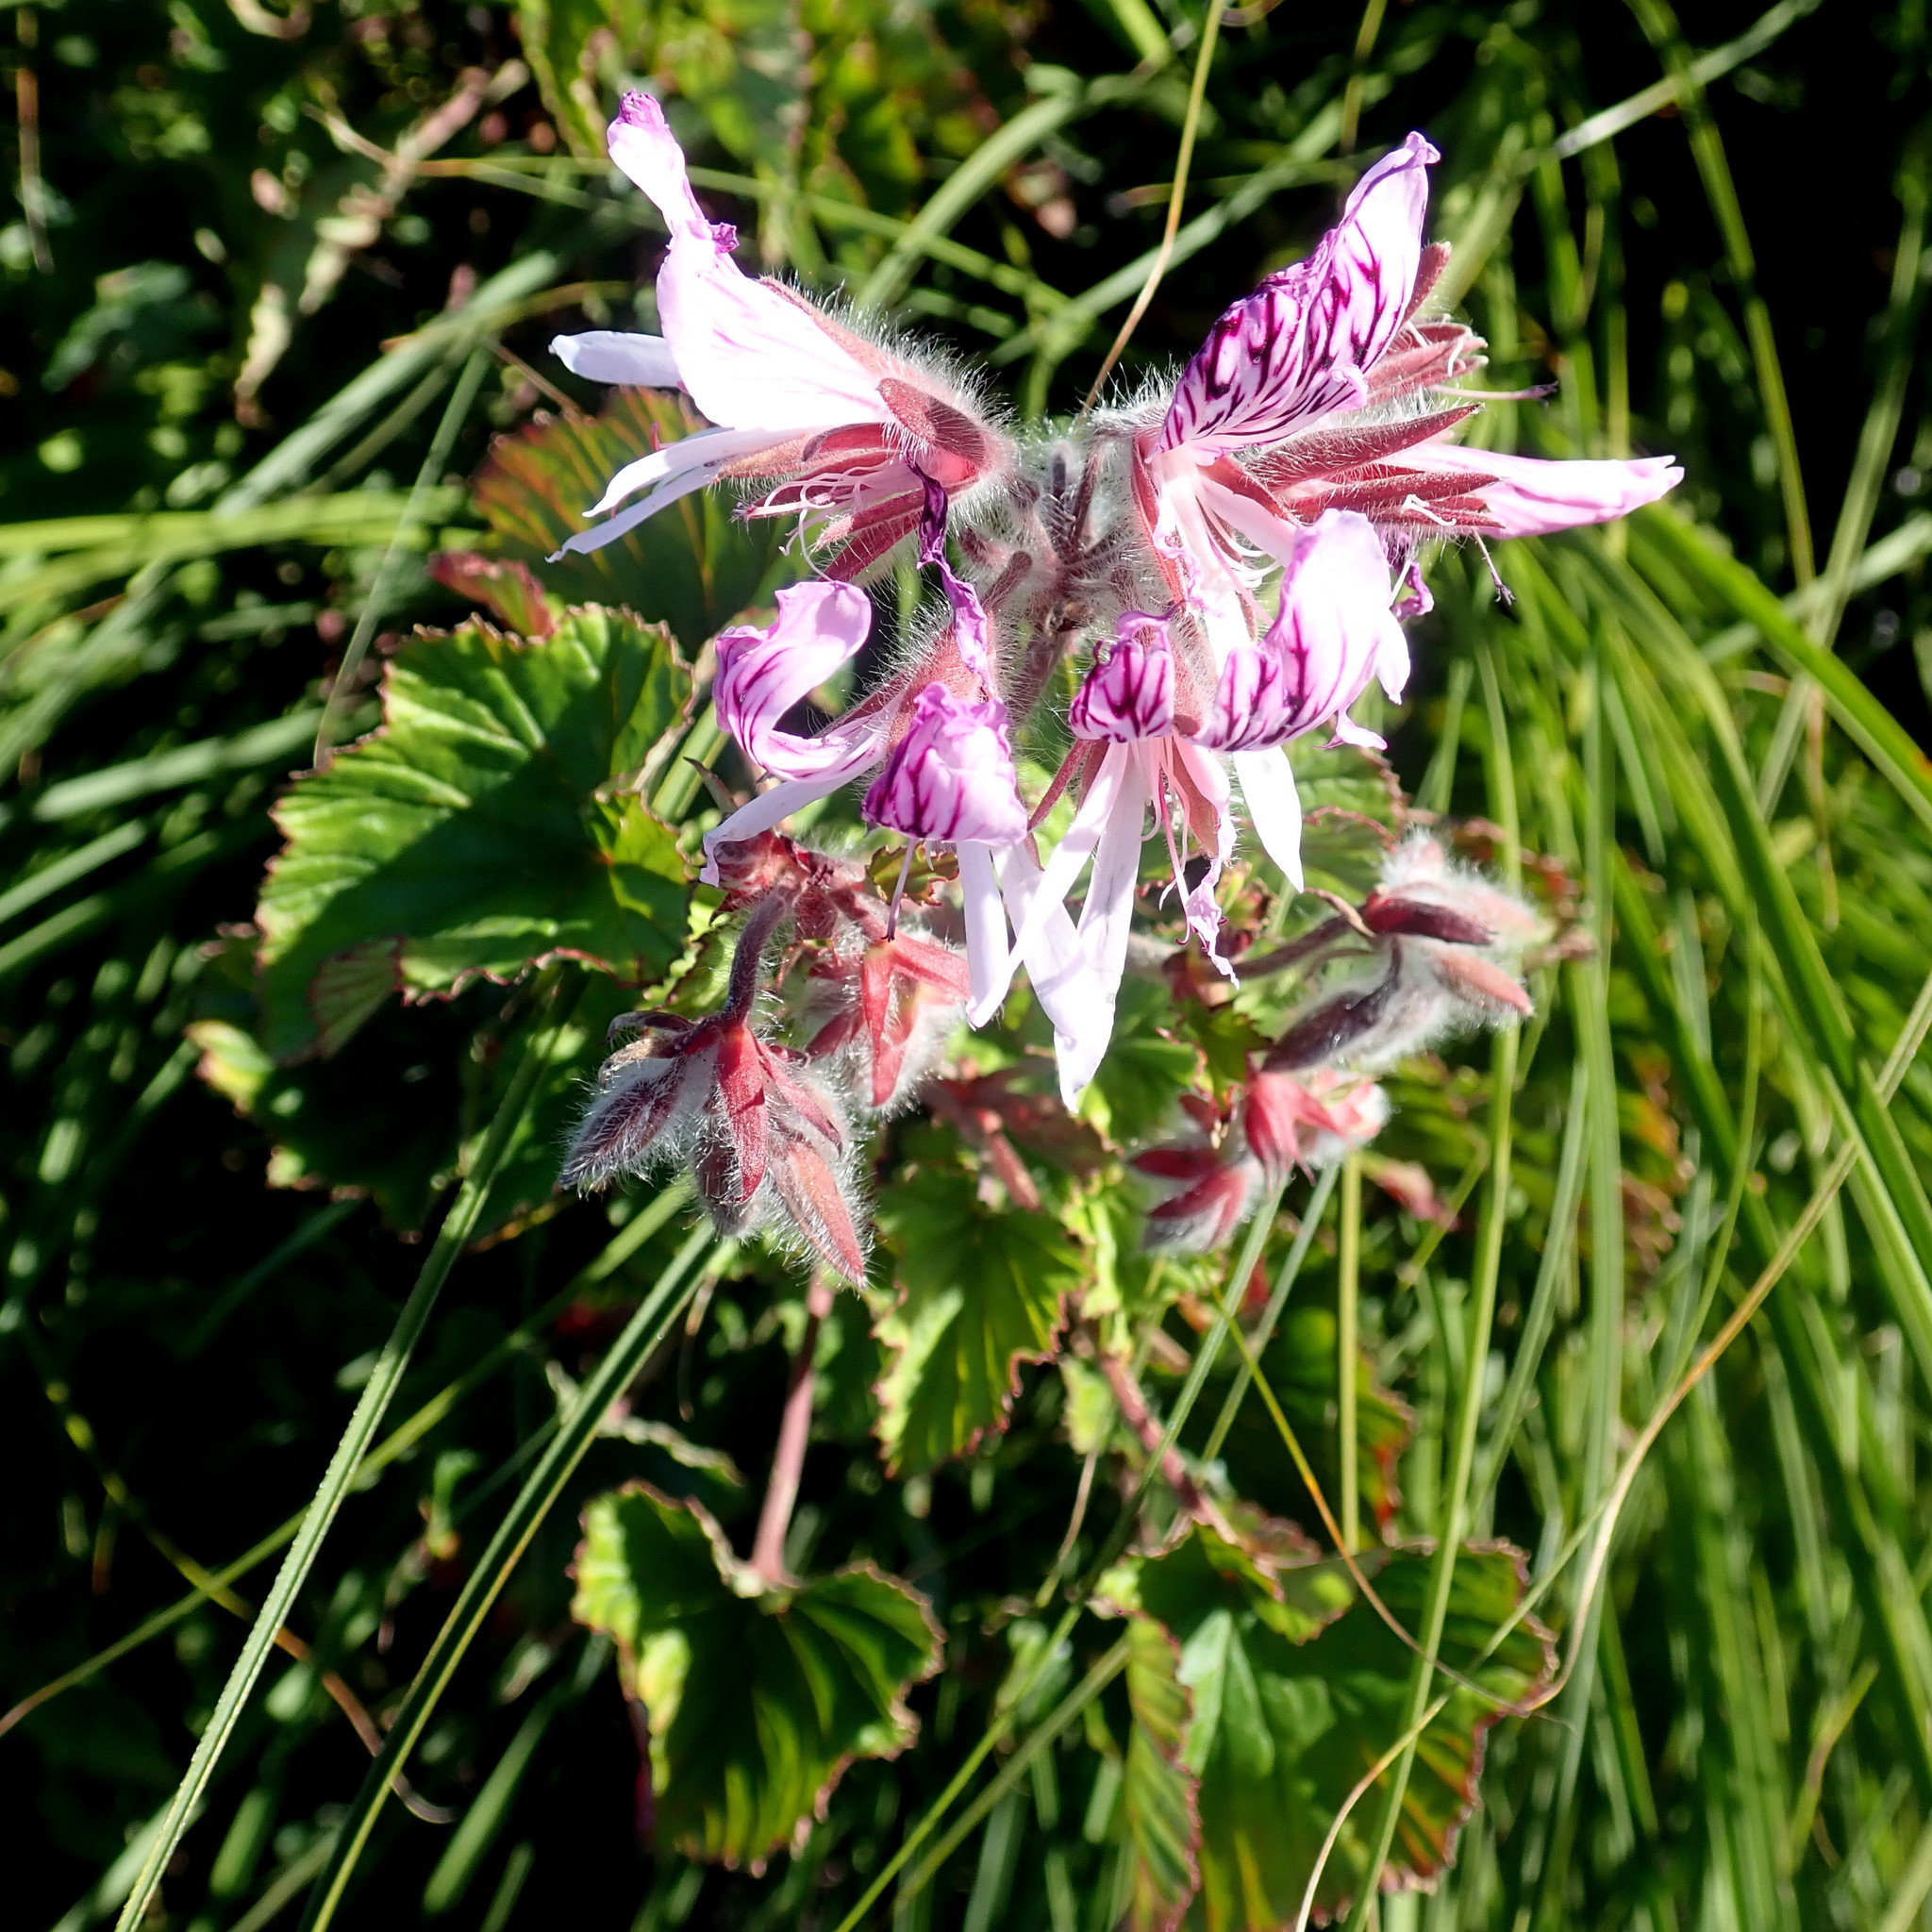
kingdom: Plantae
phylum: Tracheophyta
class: Magnoliopsida
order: Geraniales
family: Geraniaceae
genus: Pelargonium
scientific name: Pelargonium cordifolium
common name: Heart-leaf pelargonium
